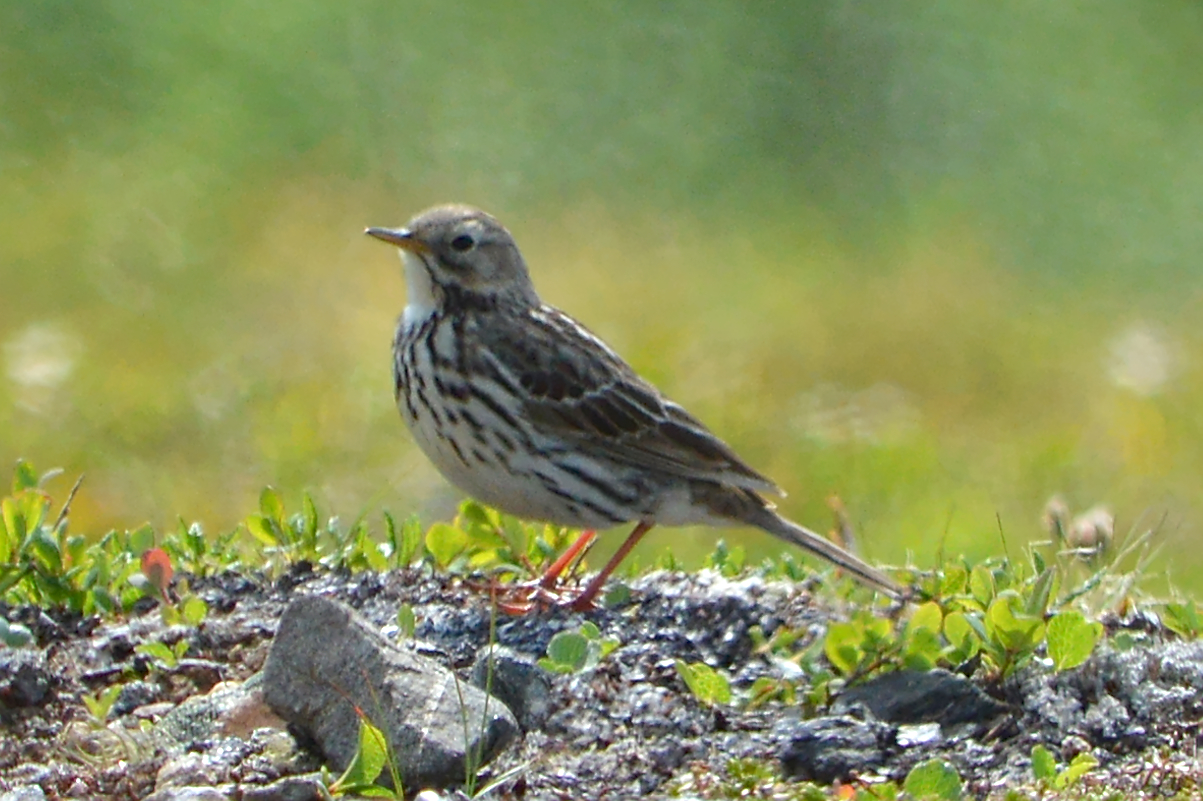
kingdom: Animalia
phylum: Chordata
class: Aves
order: Passeriformes
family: Motacillidae
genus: Anthus
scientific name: Anthus pratensis
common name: Meadow pipit
